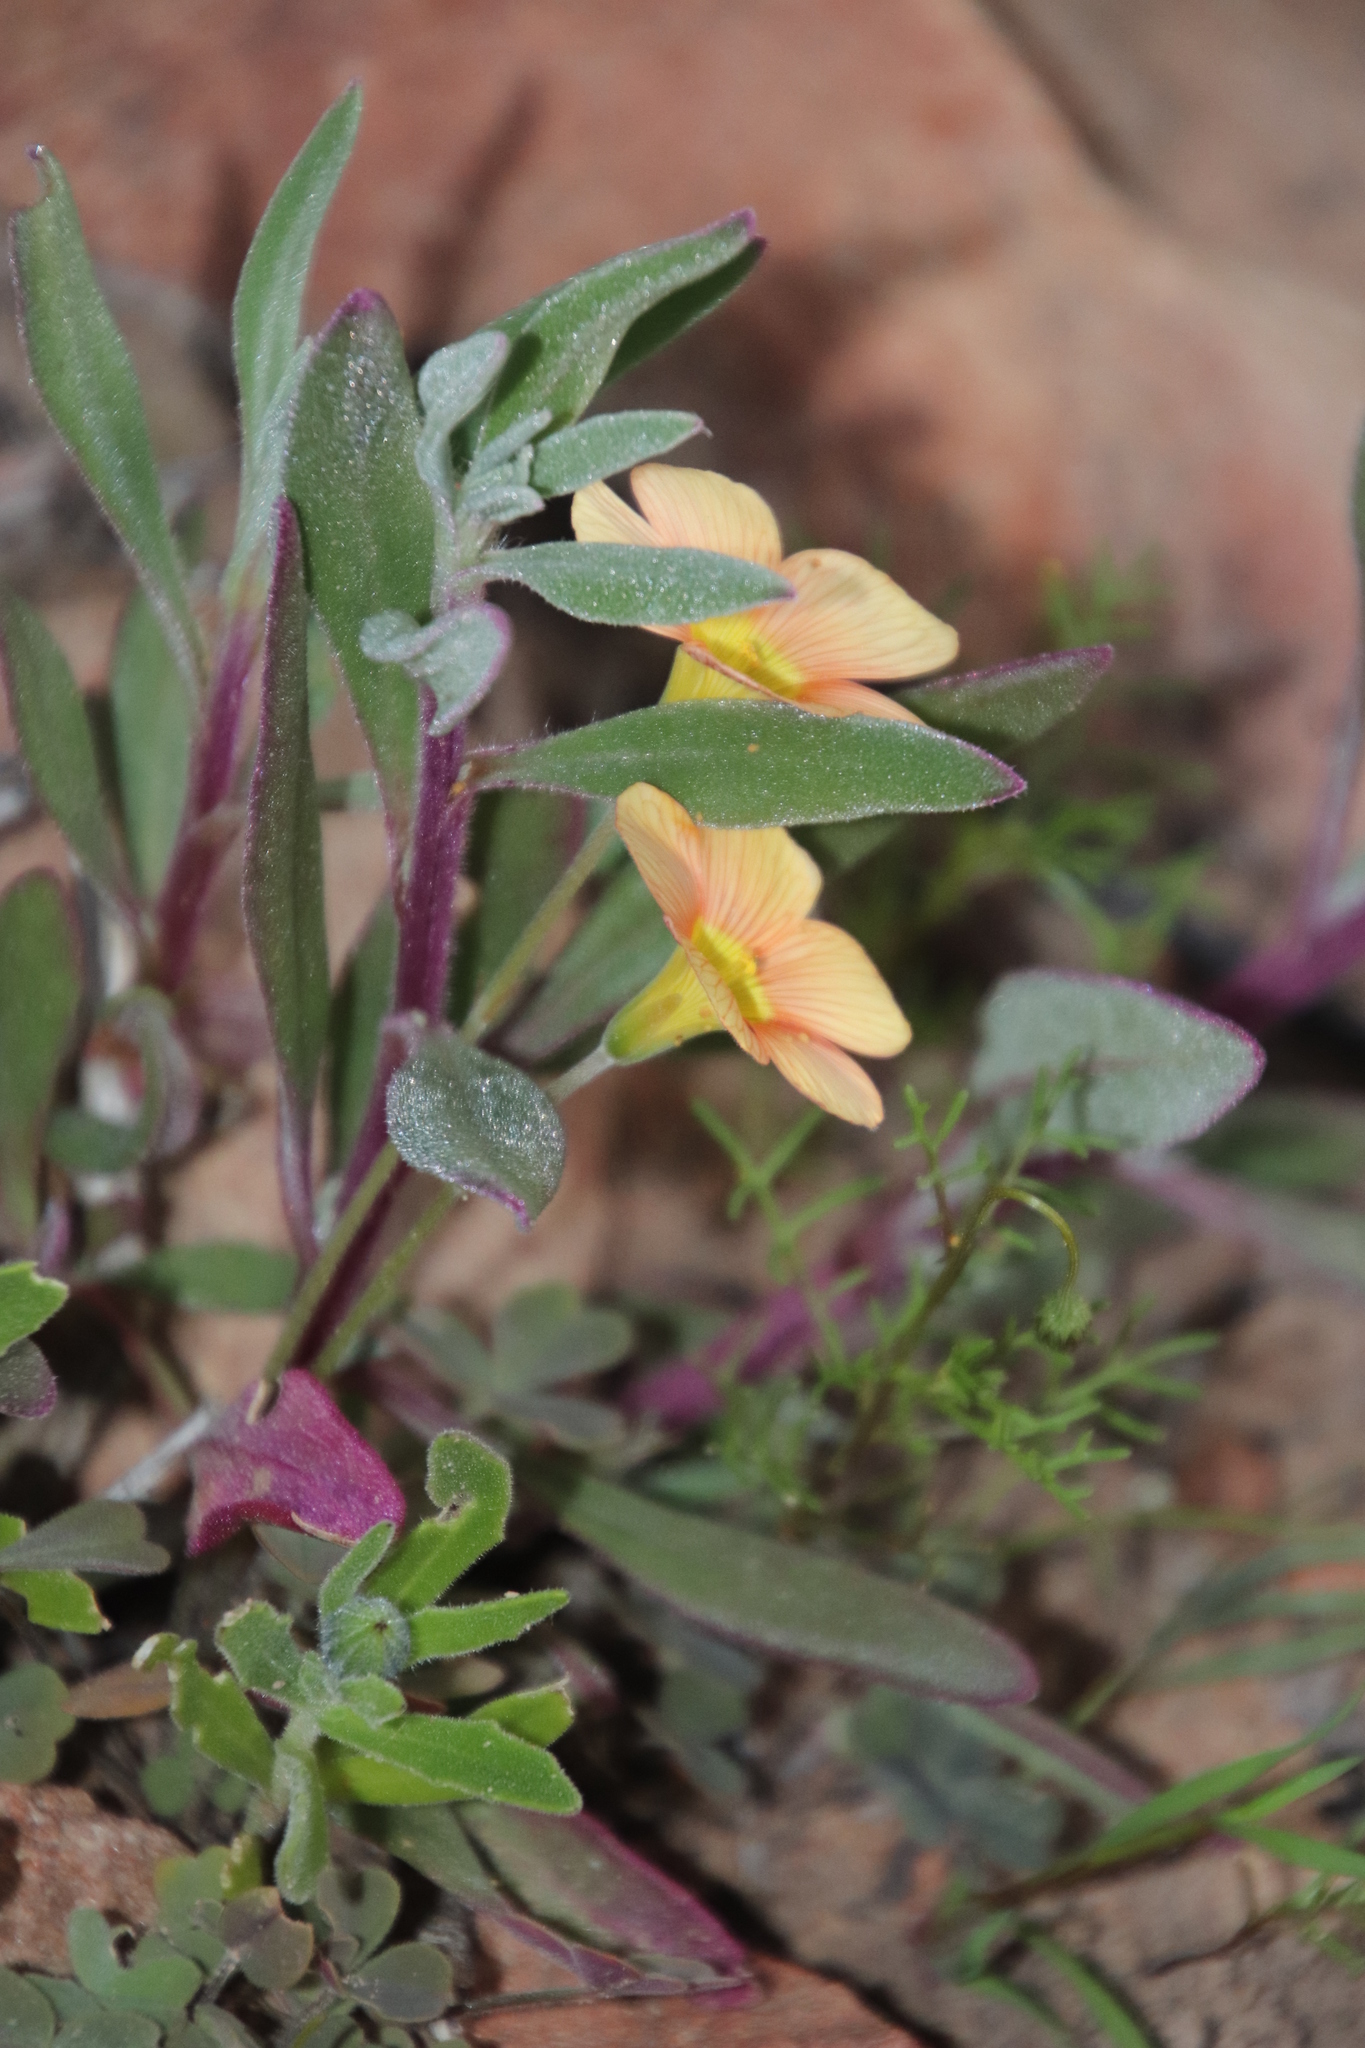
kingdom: Plantae
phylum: Tracheophyta
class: Magnoliopsida
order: Oxalidales
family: Oxalidaceae
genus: Oxalis
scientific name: Oxalis obtusa
